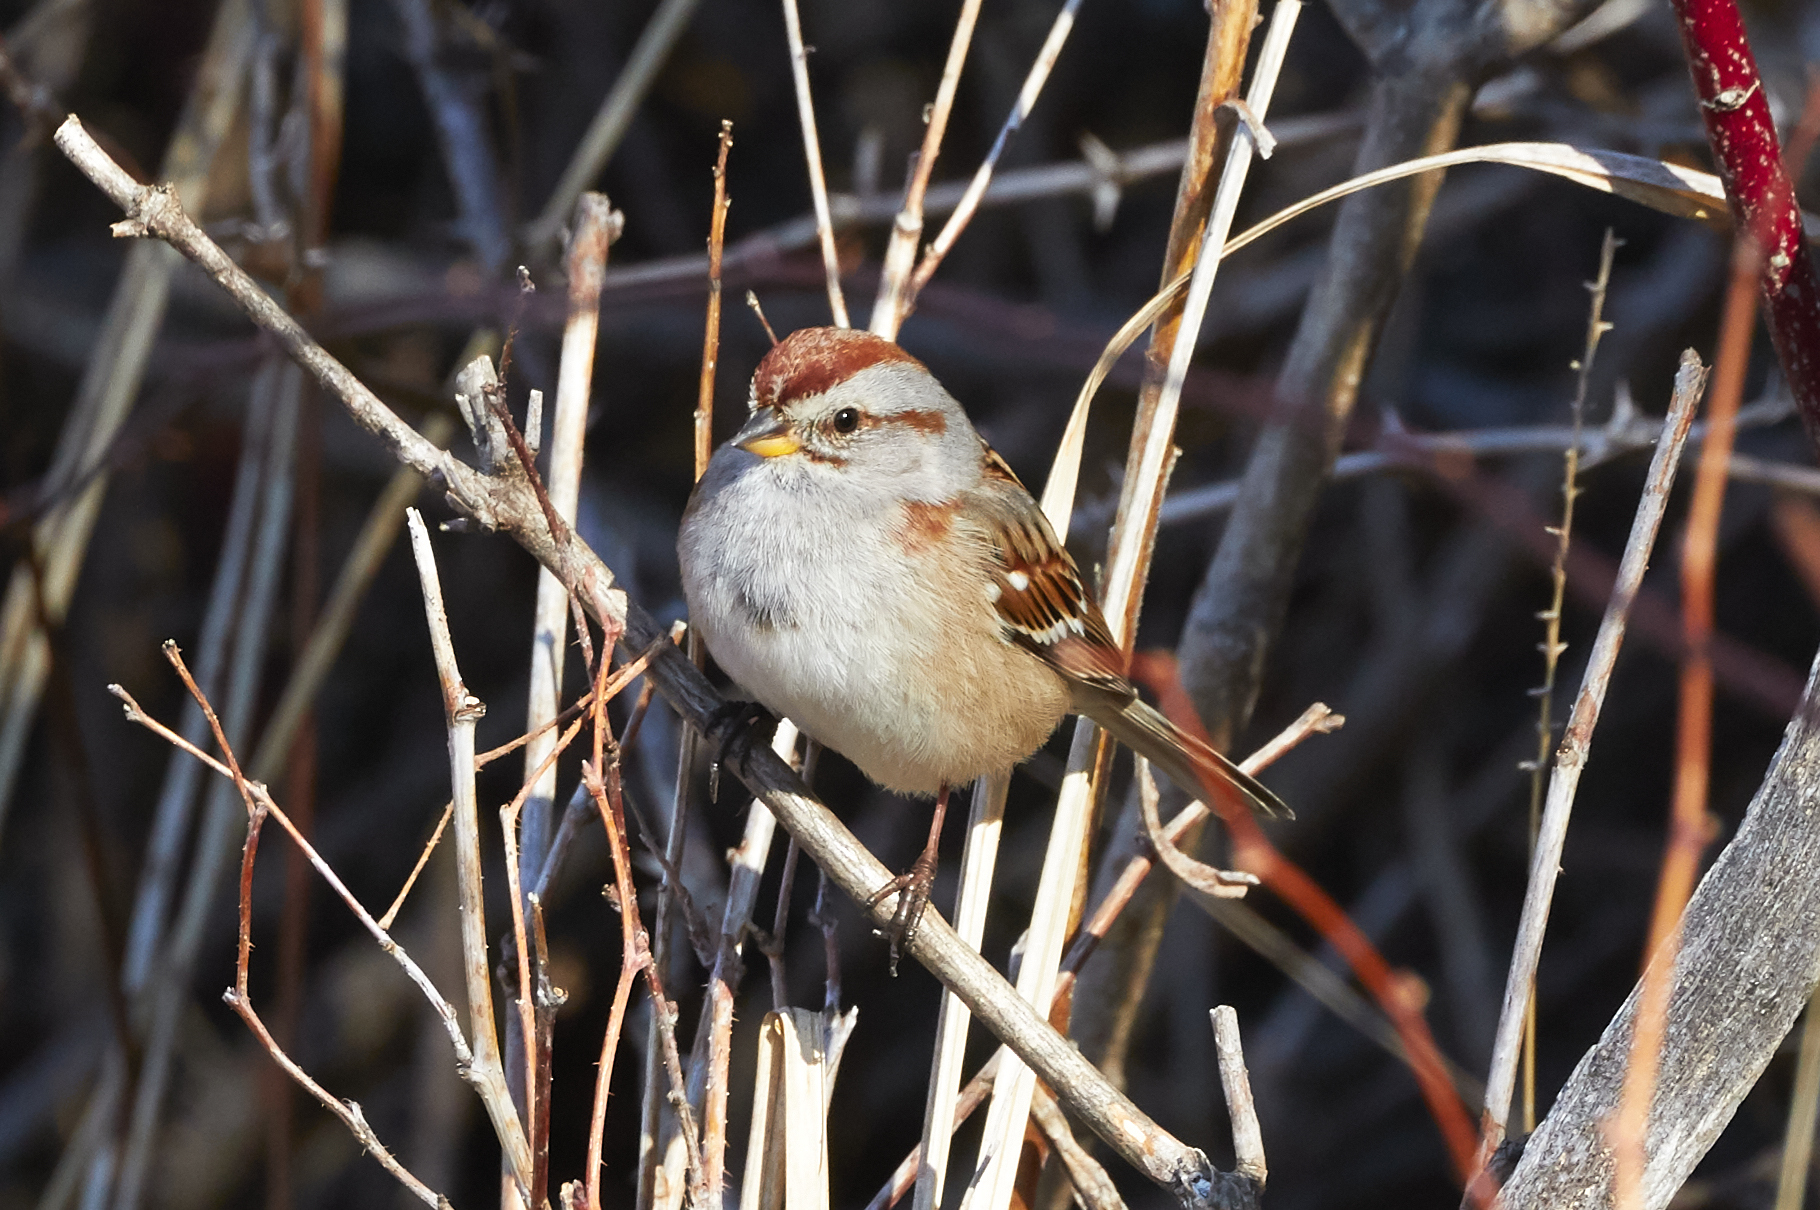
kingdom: Animalia
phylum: Chordata
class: Aves
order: Passeriformes
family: Passerellidae
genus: Spizelloides
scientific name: Spizelloides arborea
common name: American tree sparrow
